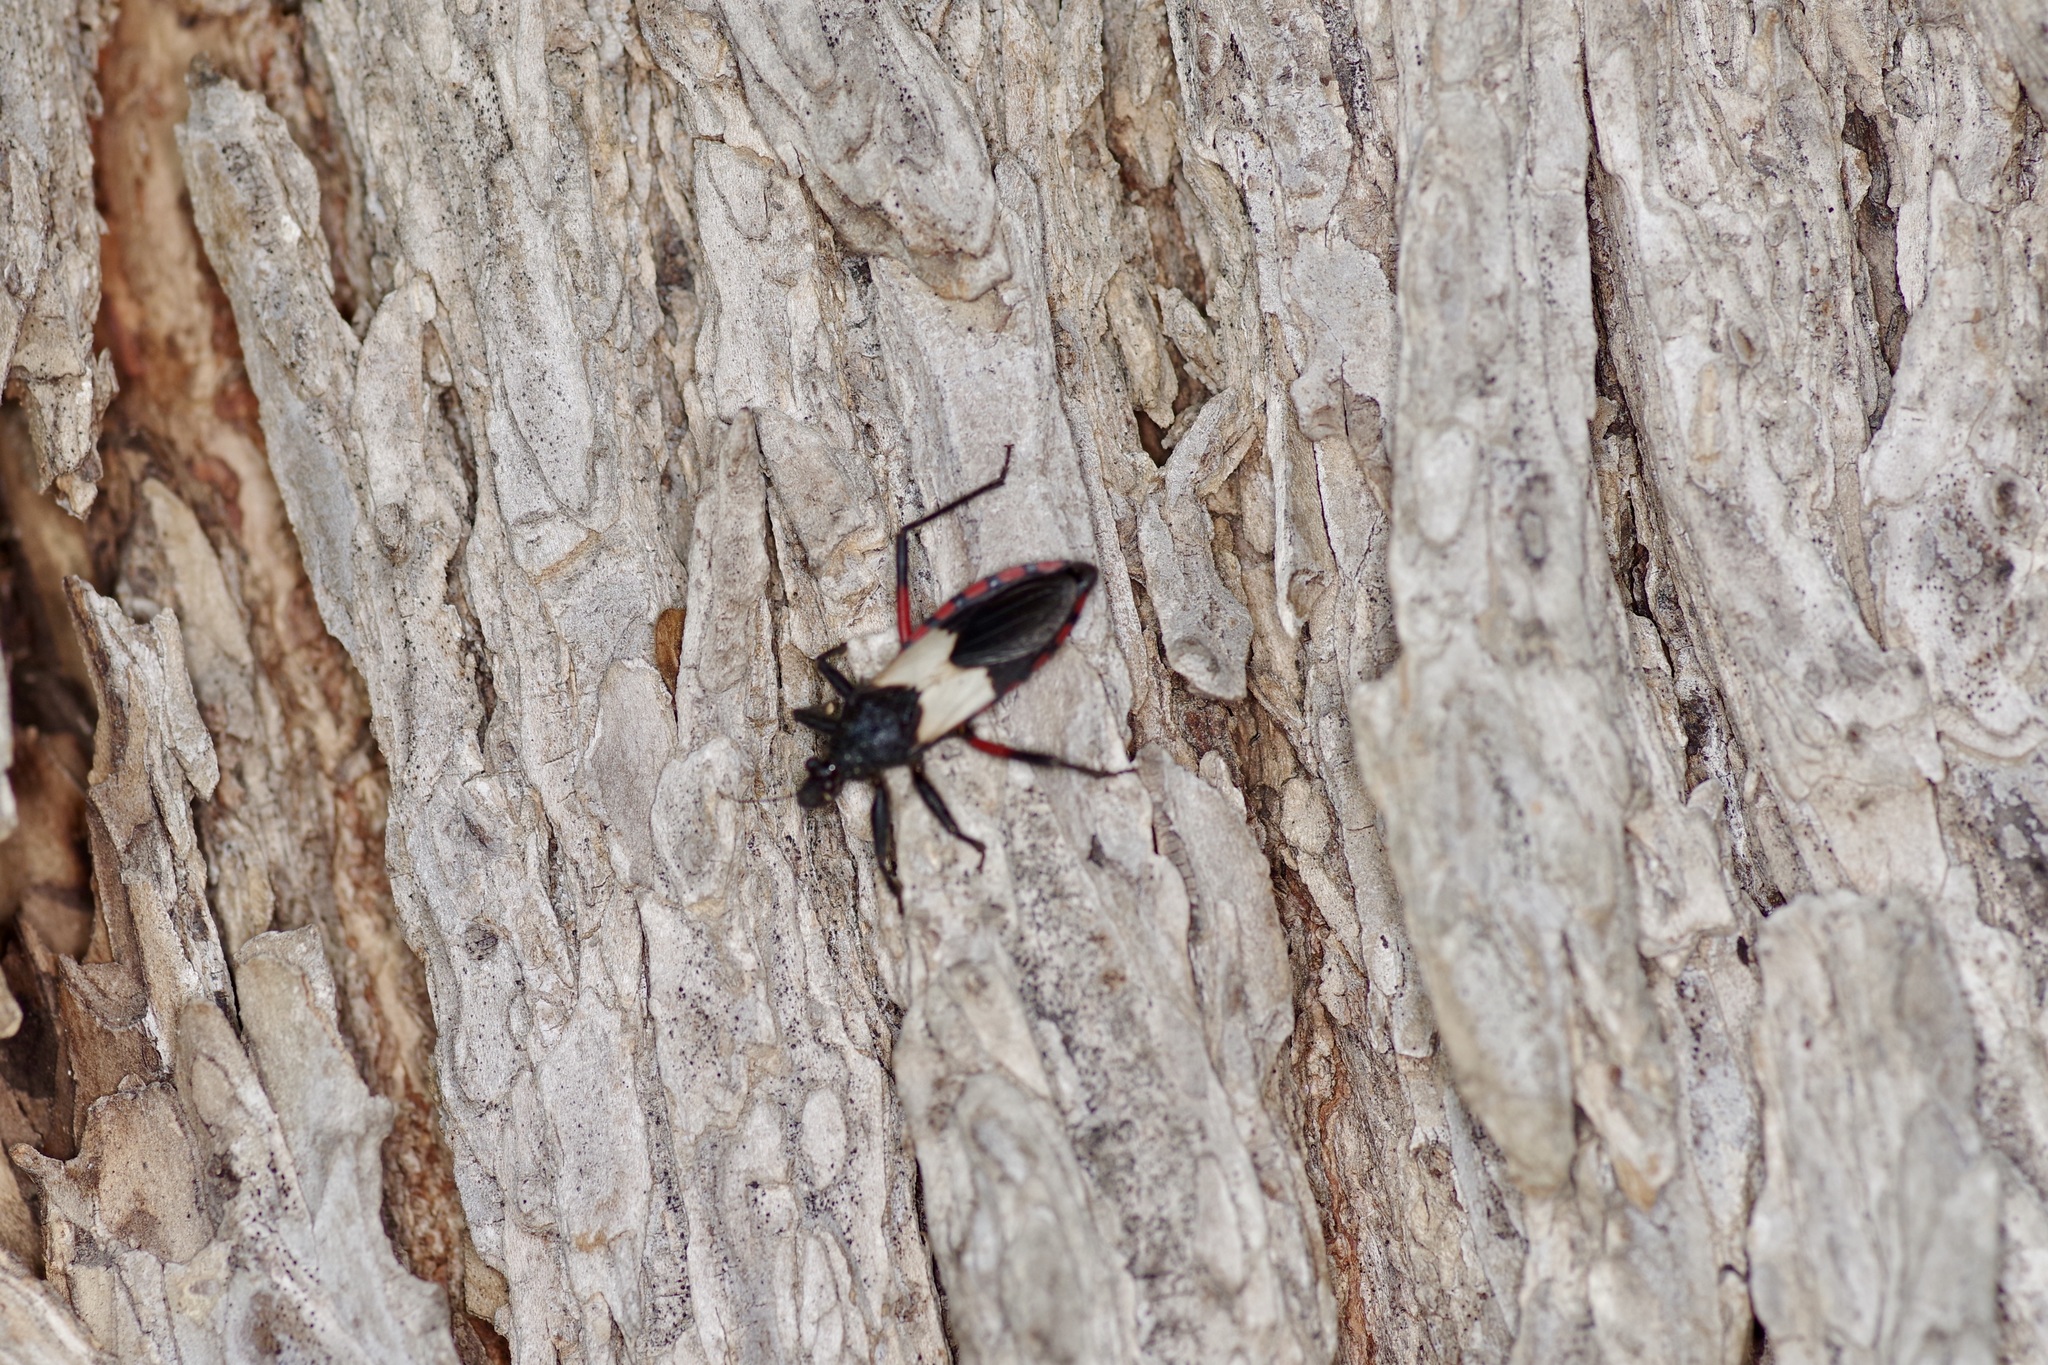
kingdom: Animalia
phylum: Arthropoda
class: Insecta
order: Hemiptera
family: Reduviidae
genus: Microtomus
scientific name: Microtomus purcis
